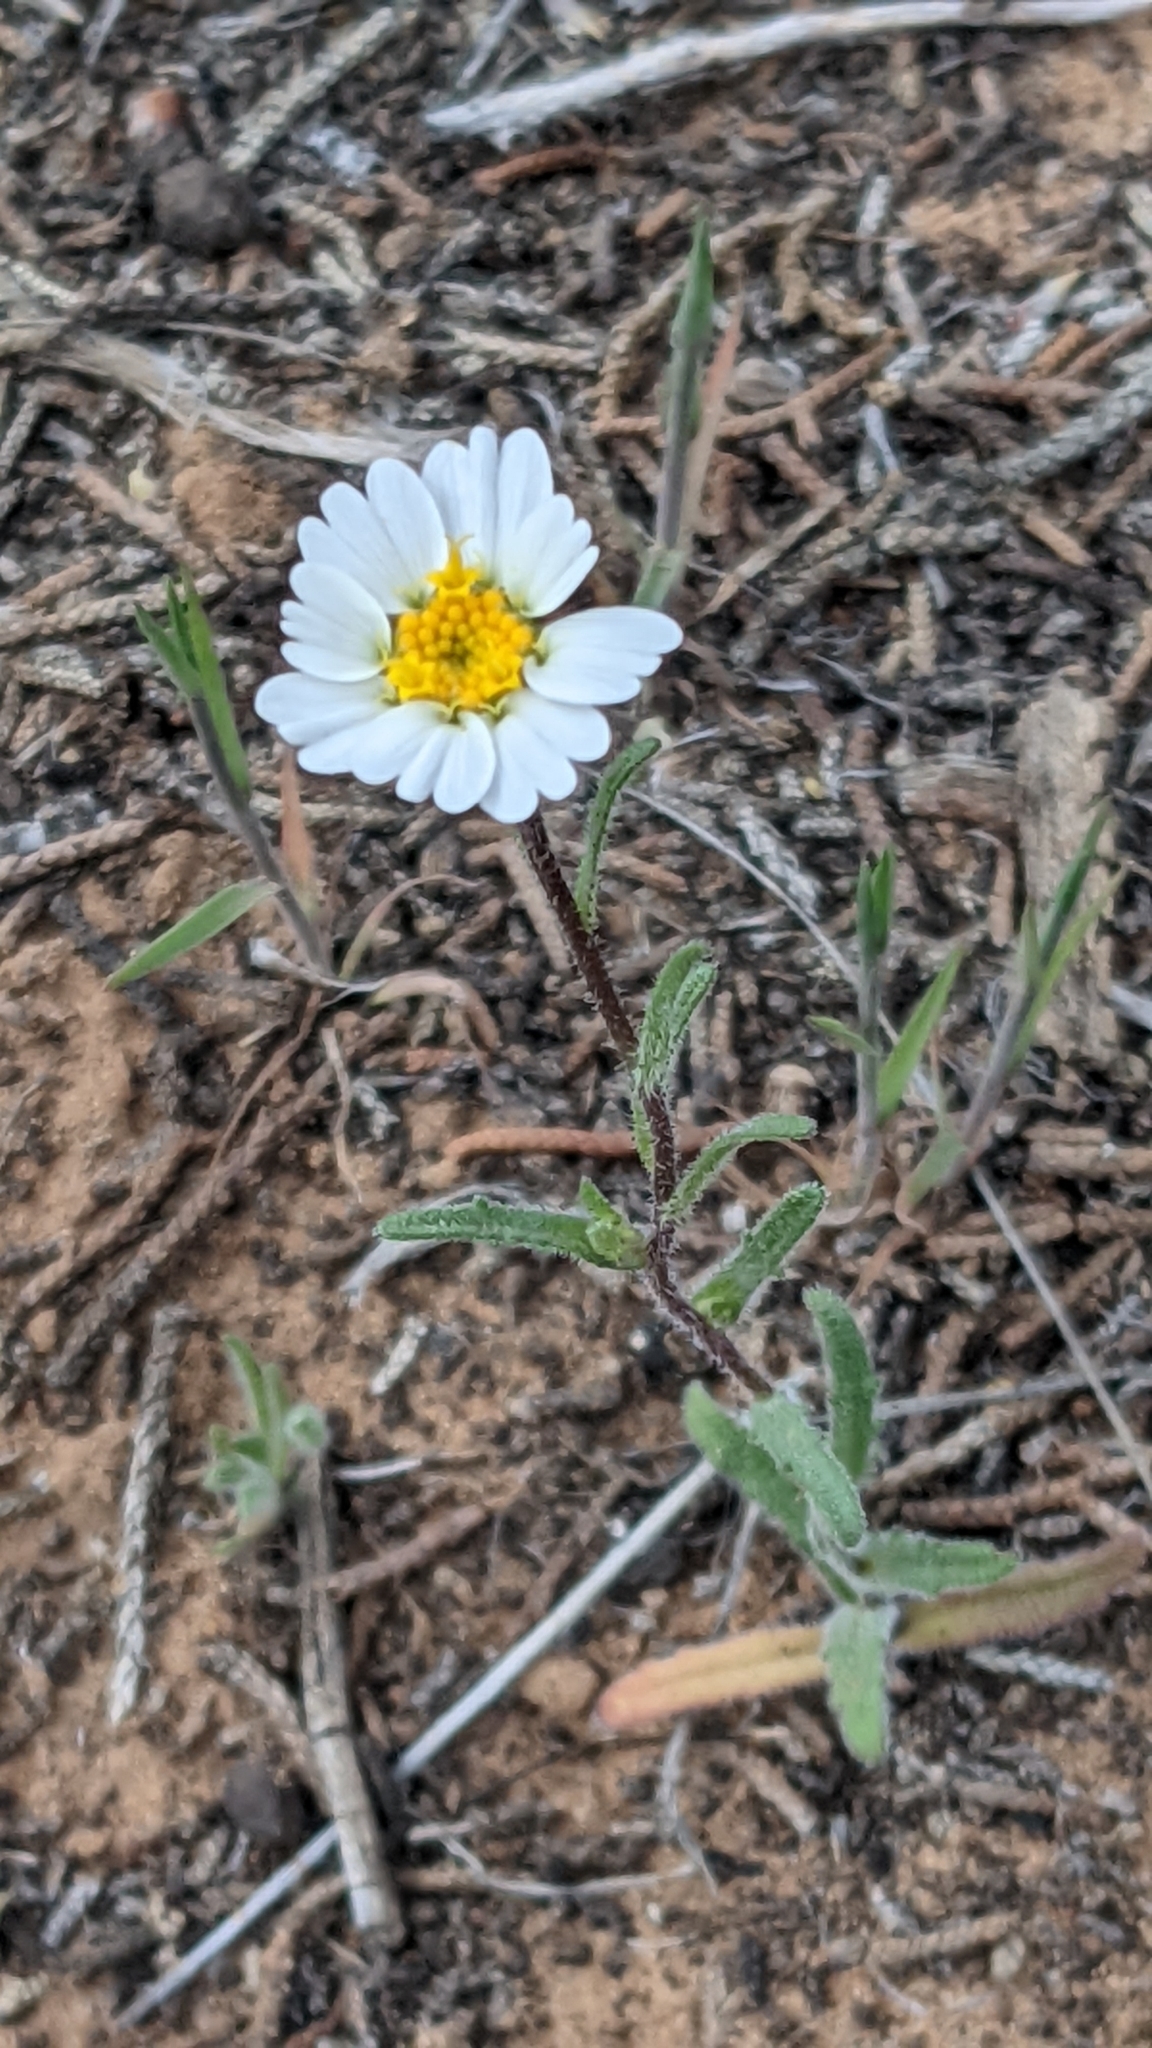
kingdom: Plantae
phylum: Tracheophyta
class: Magnoliopsida
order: Asterales
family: Asteraceae
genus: Layia
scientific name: Layia glandulosa
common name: White layia
